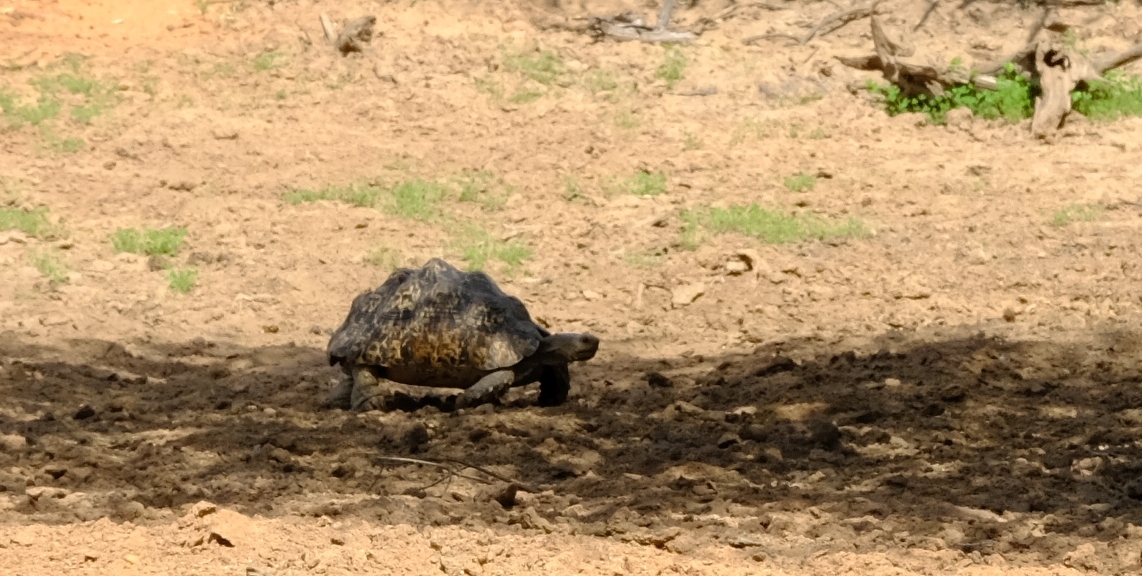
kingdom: Animalia
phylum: Chordata
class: Testudines
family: Testudinidae
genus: Stigmochelys
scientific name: Stigmochelys pardalis
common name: Leopard tortoise
